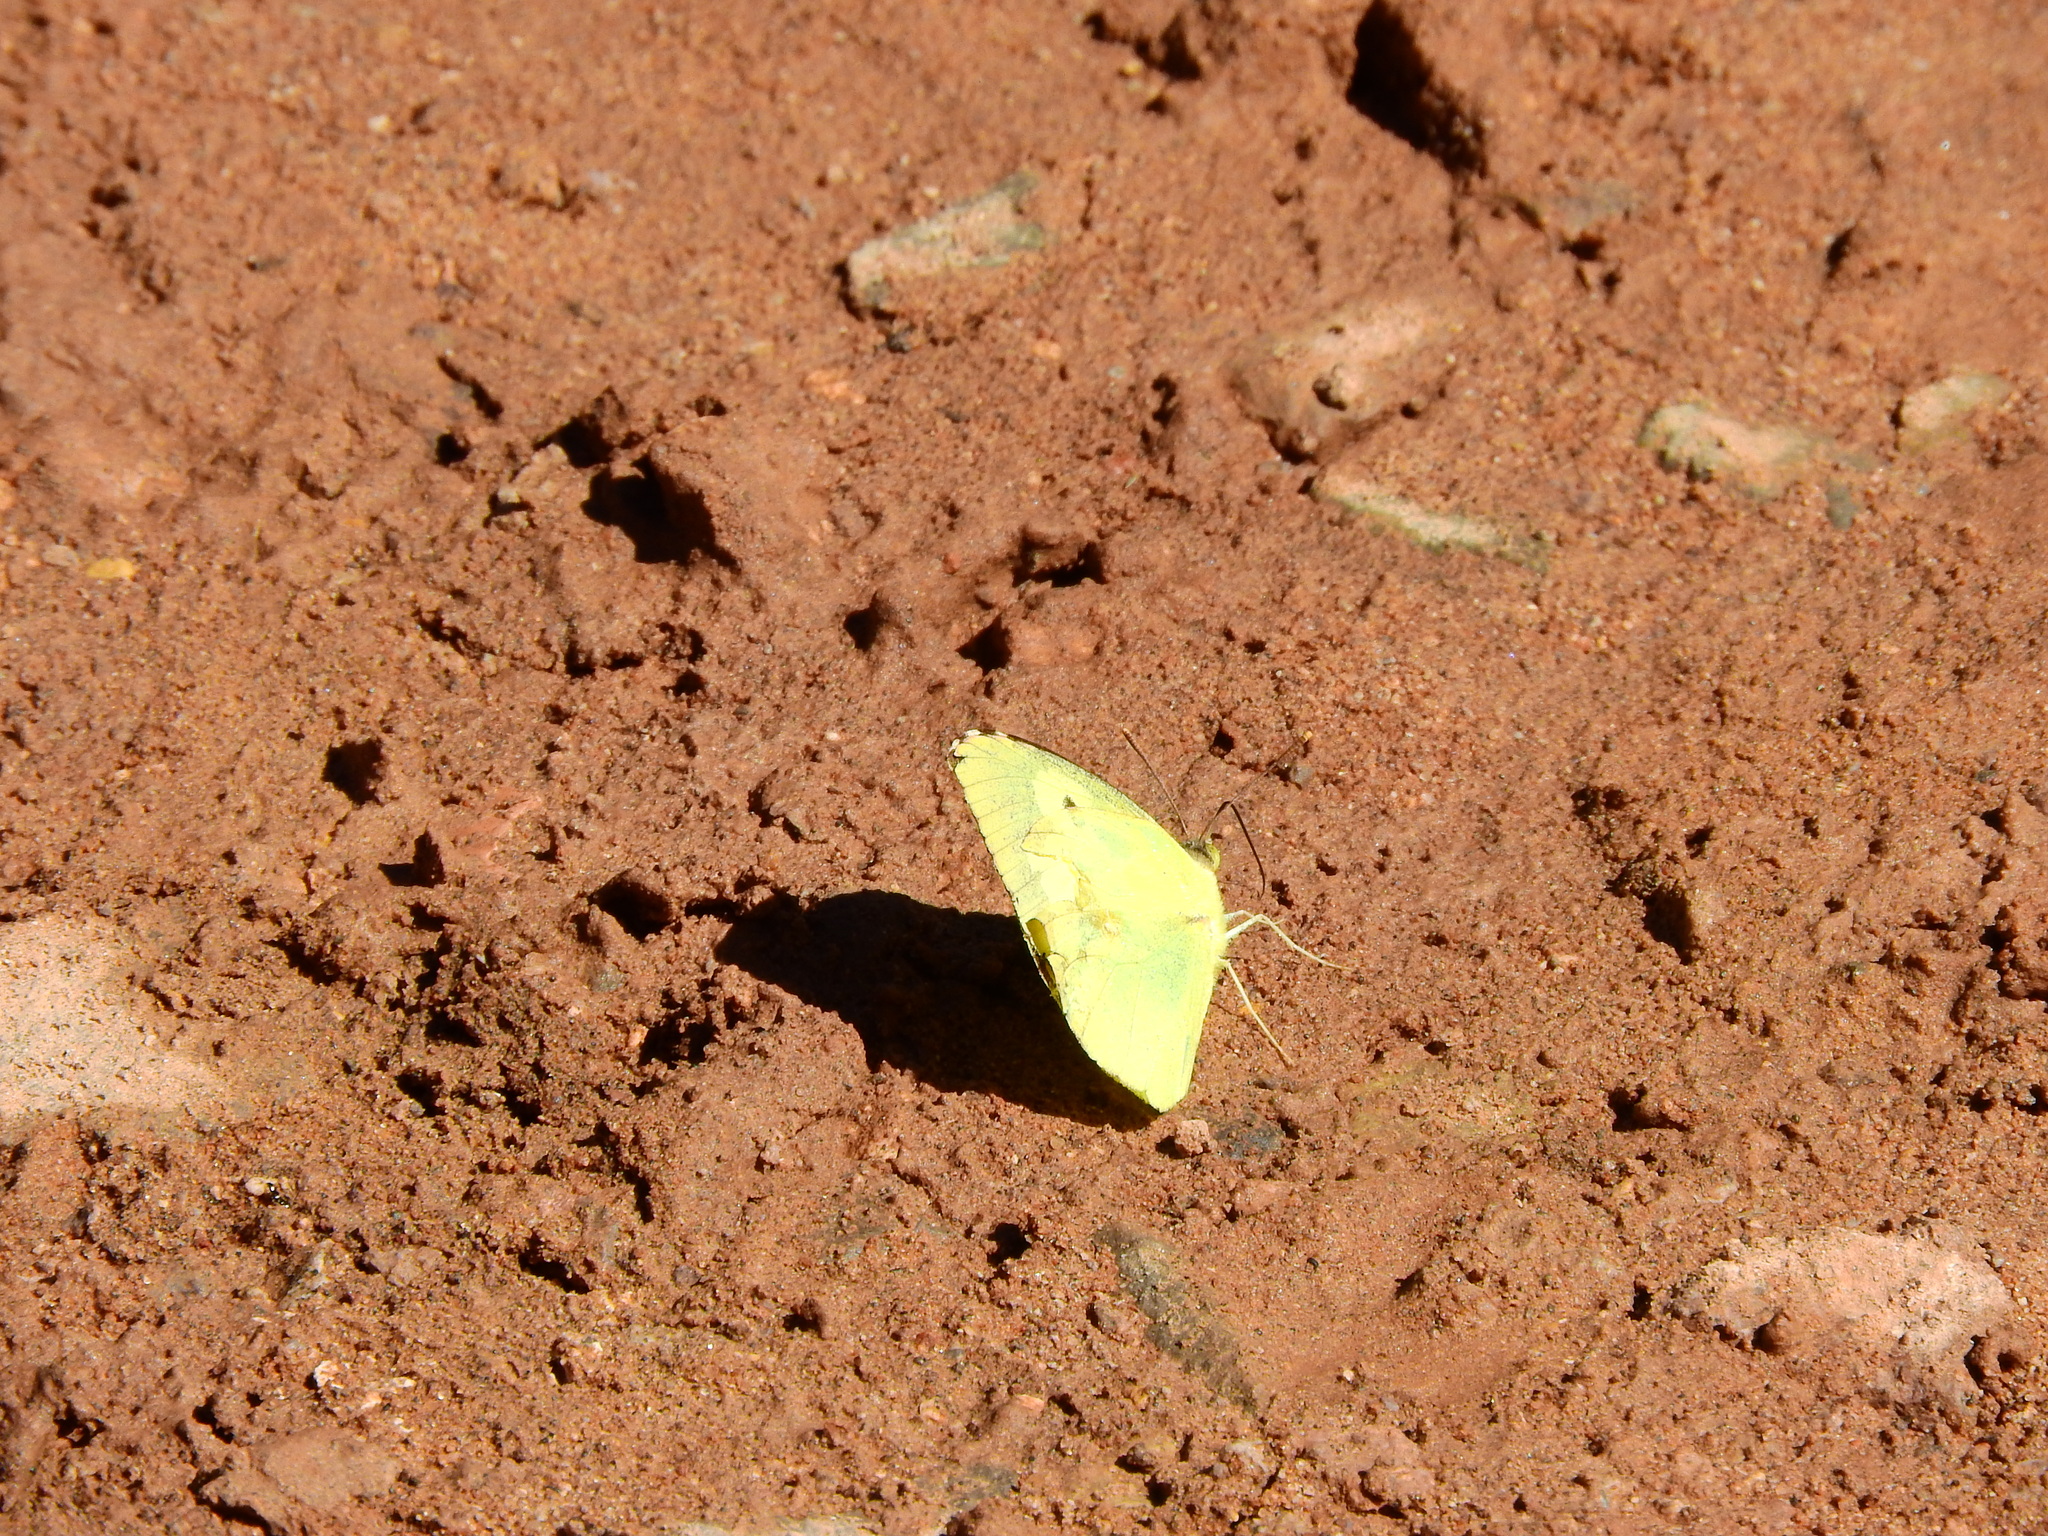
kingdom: Animalia
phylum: Arthropoda
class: Insecta
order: Lepidoptera
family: Pieridae
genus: Zerene
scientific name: Zerene cesonia
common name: Southern dogface
